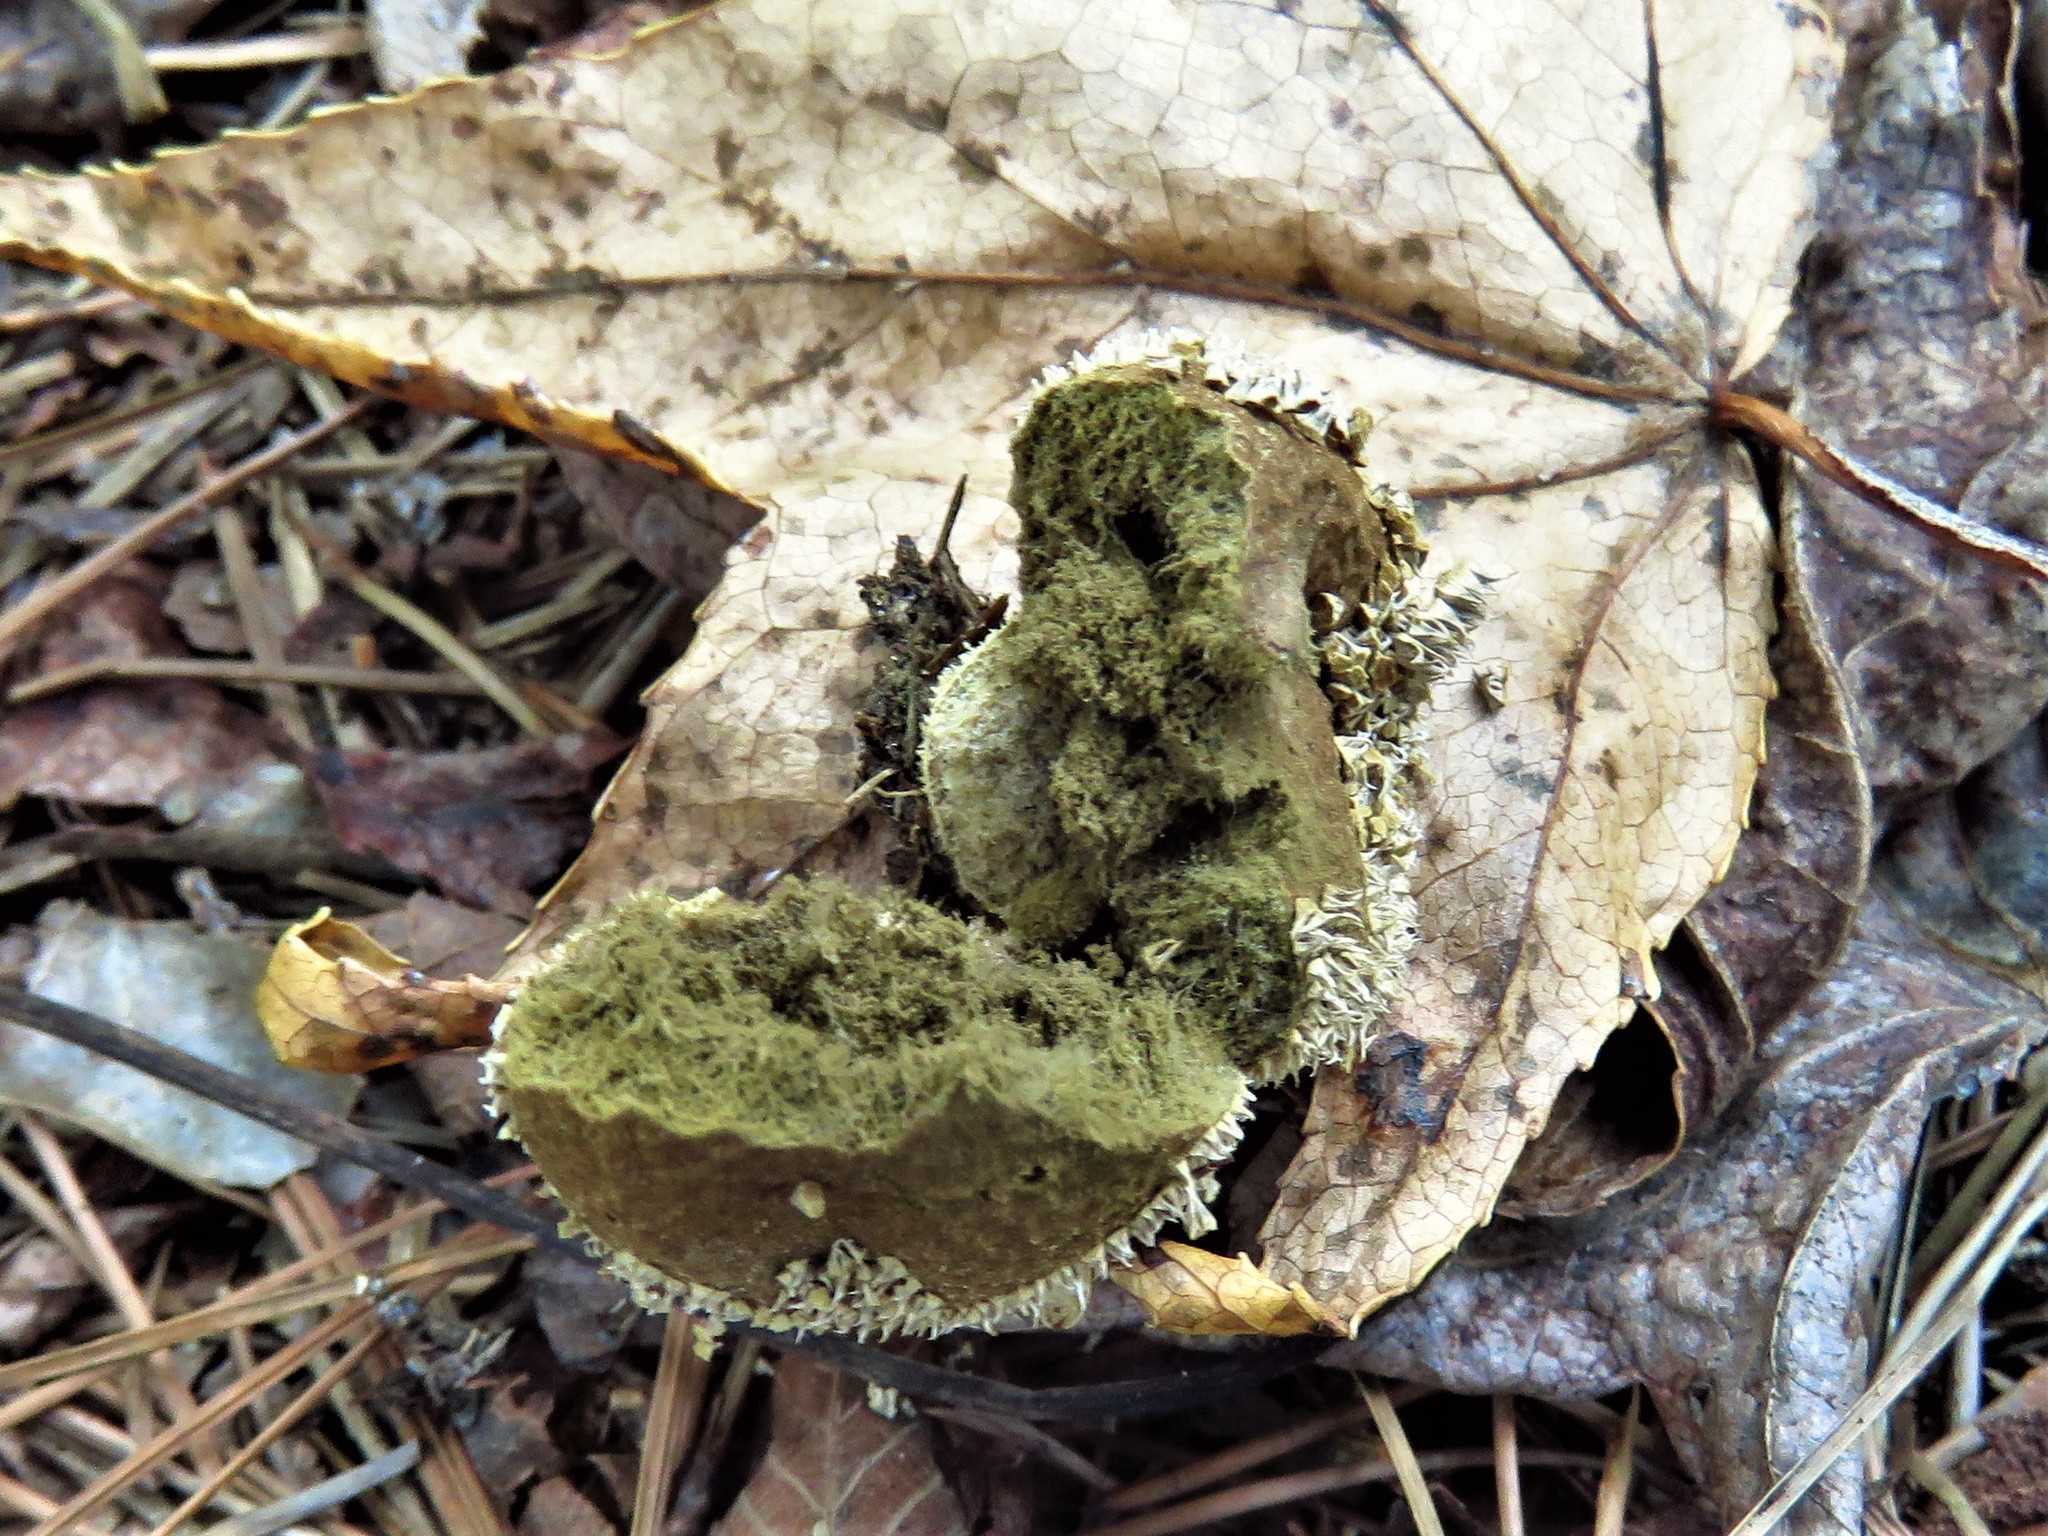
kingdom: Fungi
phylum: Basidiomycota
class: Agaricomycetes
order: Agaricales
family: Agaricaceae
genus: Lycoperdon
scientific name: Lycoperdon marginatum
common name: Peeling puffball
